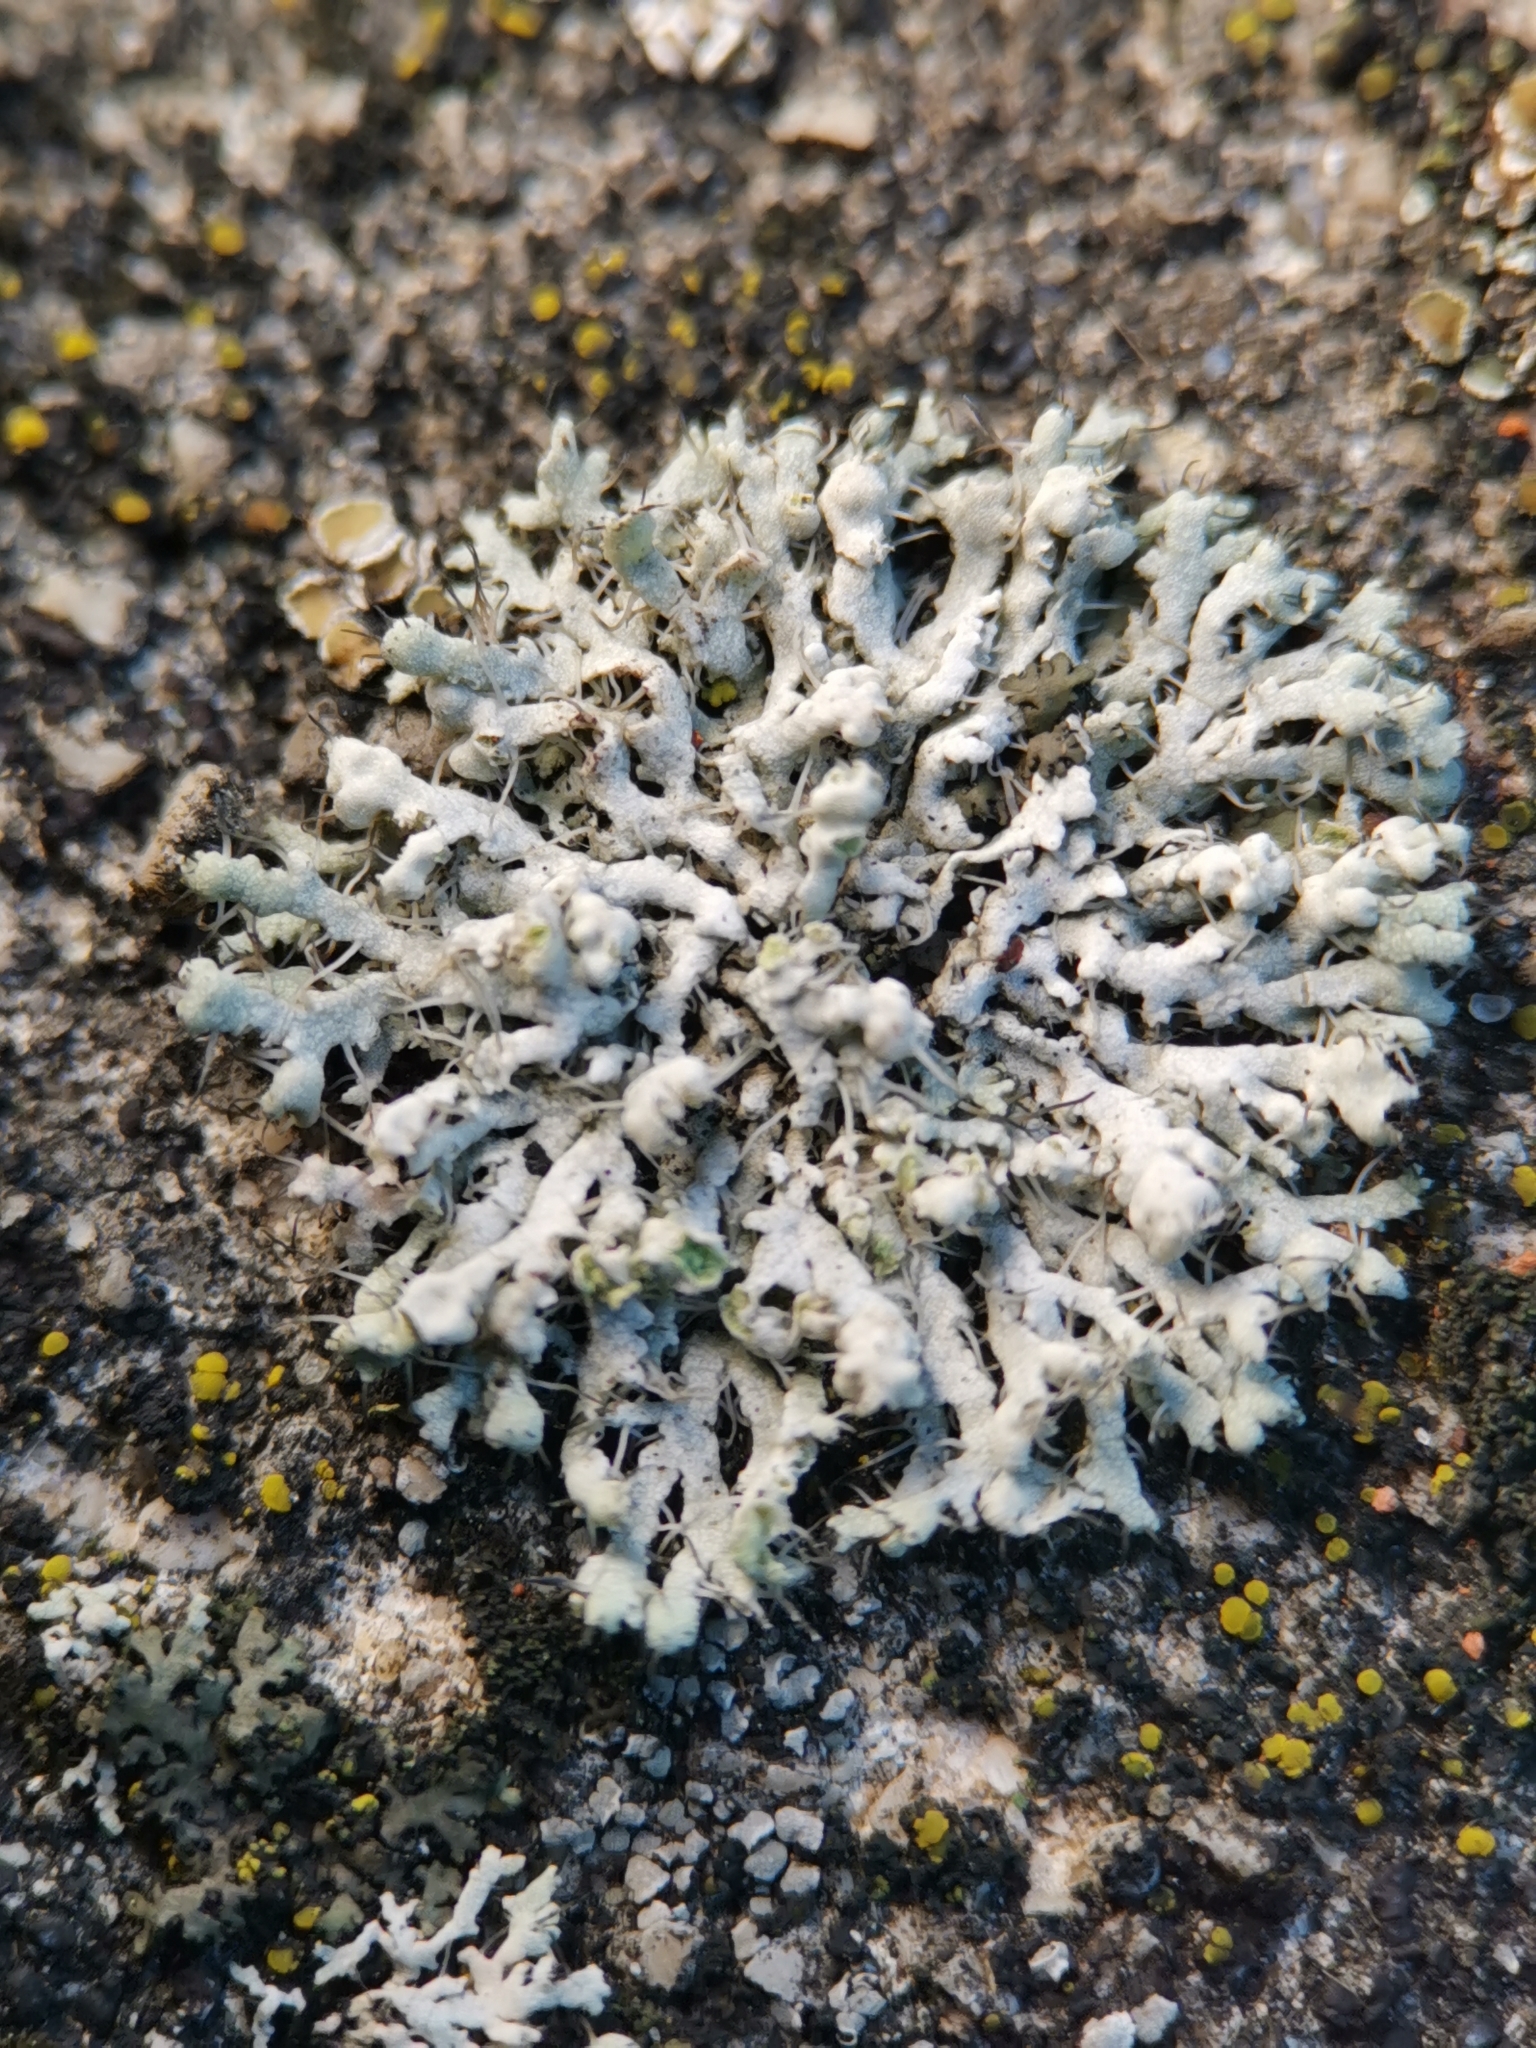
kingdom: Fungi
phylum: Ascomycota
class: Lecanoromycetes
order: Caliciales
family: Physciaceae
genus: Physcia
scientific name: Physcia adscendens
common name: Hooded rosette lichen
